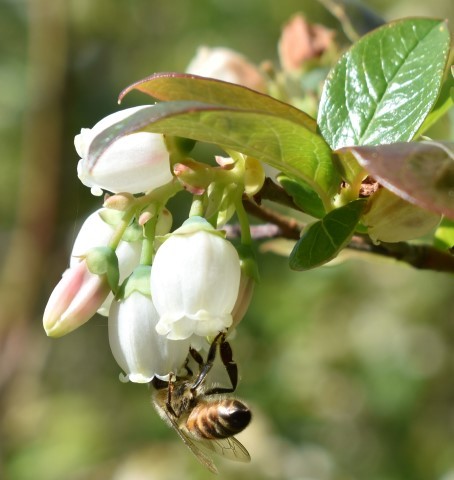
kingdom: Animalia
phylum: Arthropoda
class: Insecta
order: Hymenoptera
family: Apidae
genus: Apis
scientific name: Apis mellifera
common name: Honey bee
